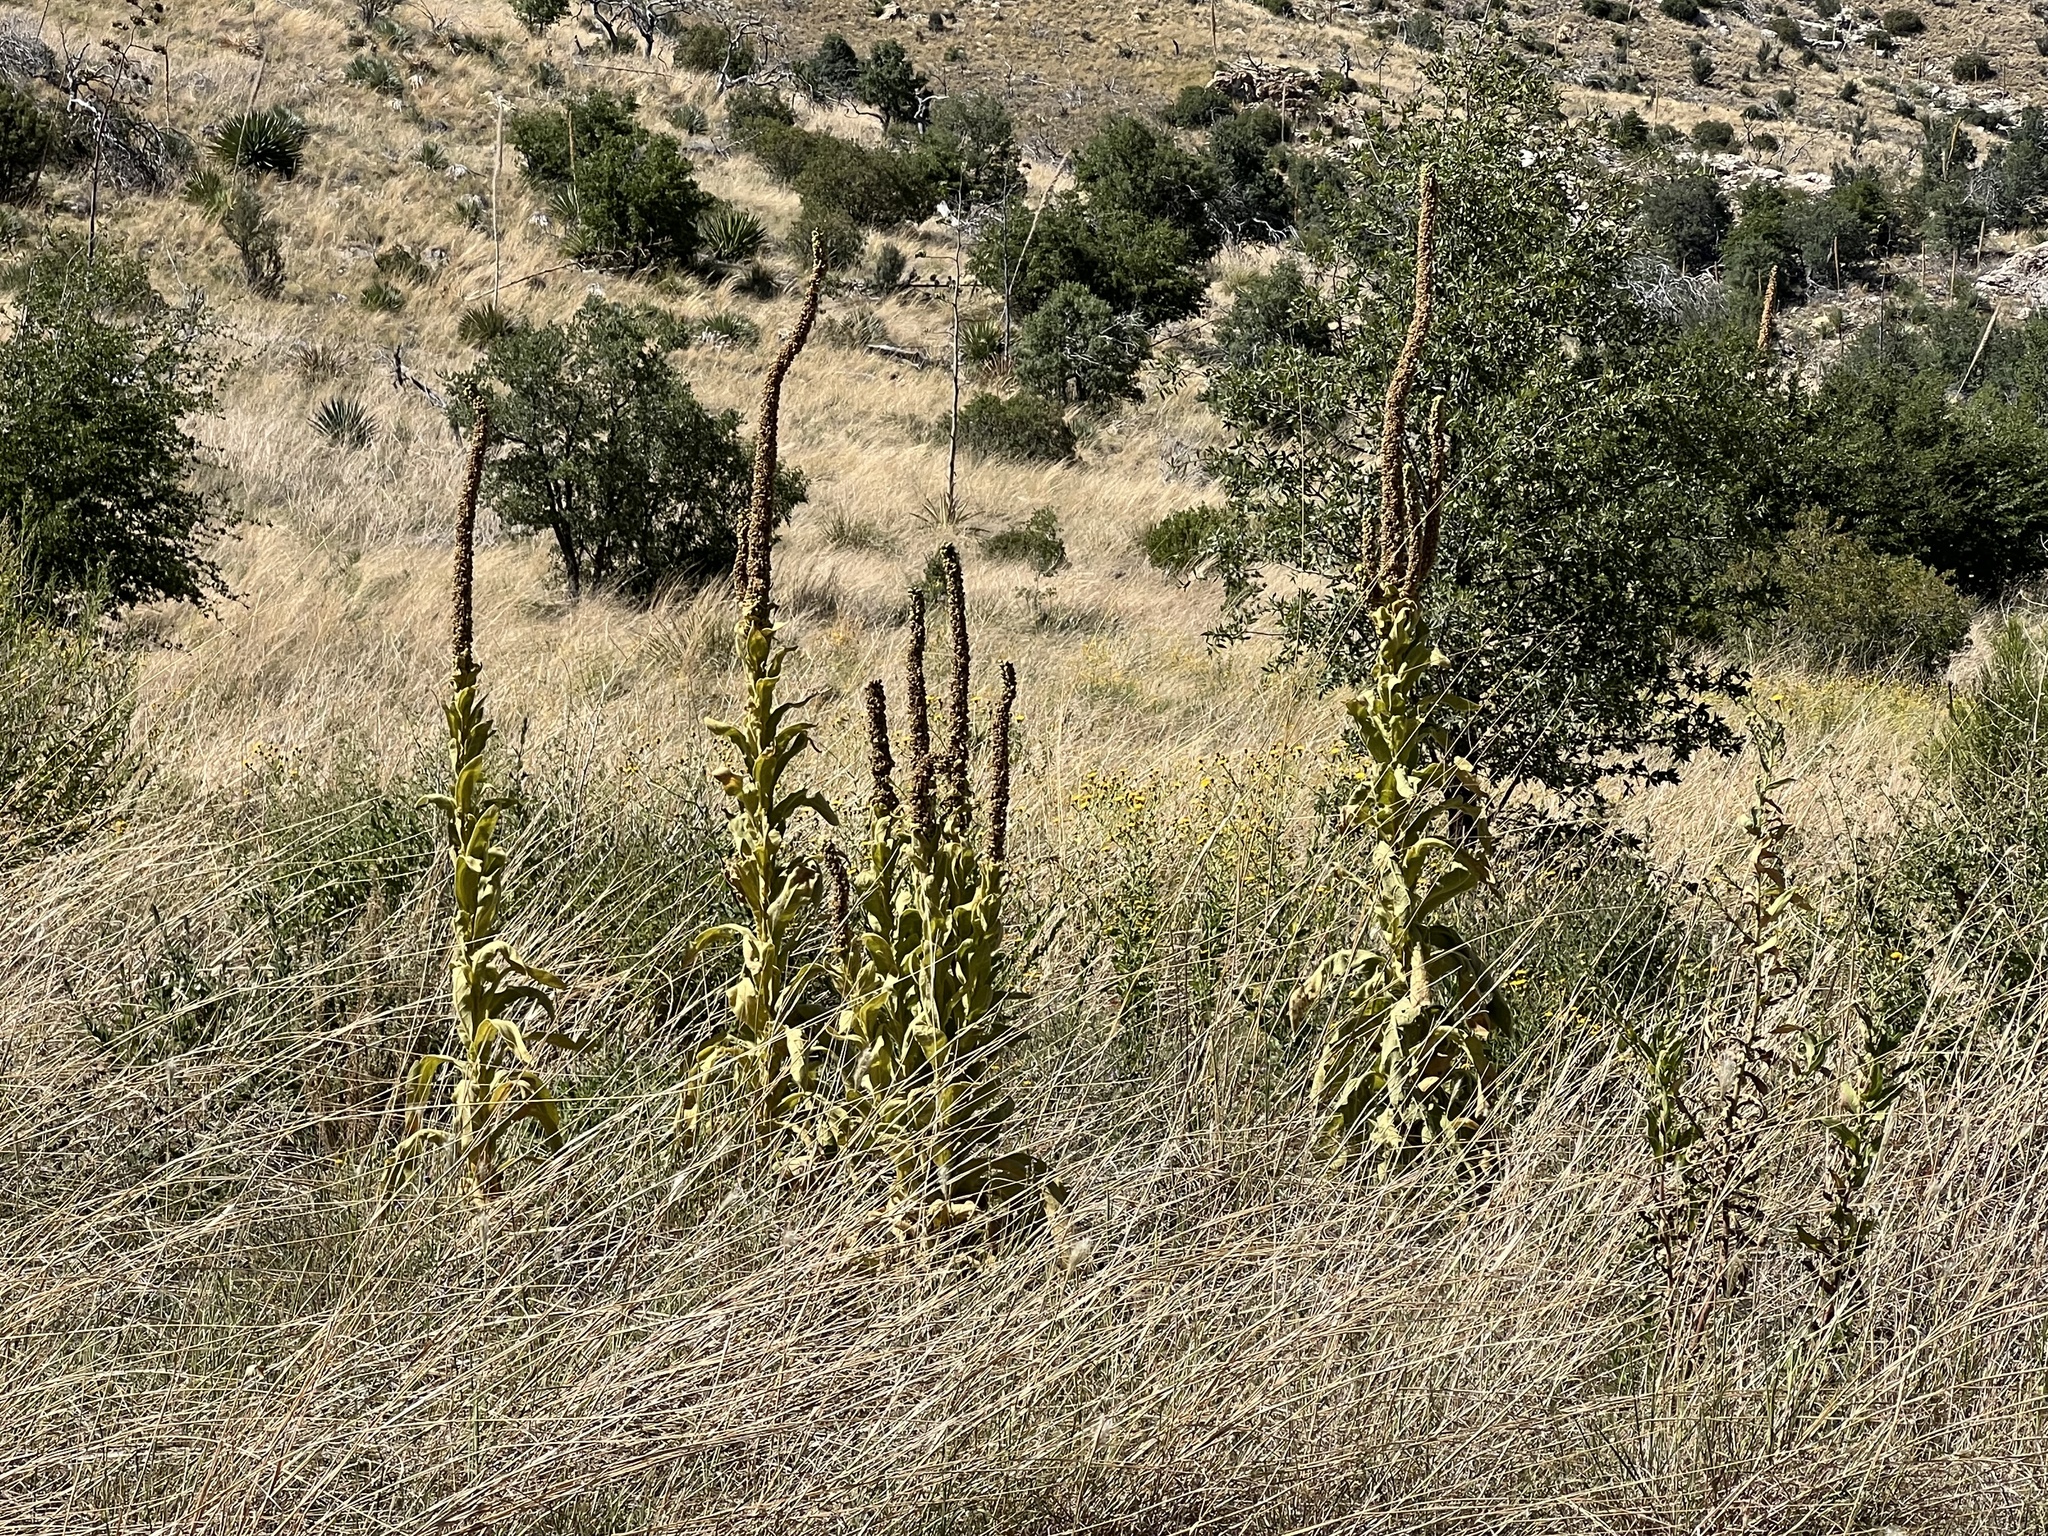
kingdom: Plantae
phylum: Tracheophyta
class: Magnoliopsida
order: Lamiales
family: Scrophulariaceae
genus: Verbascum
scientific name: Verbascum thapsus
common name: Common mullein
